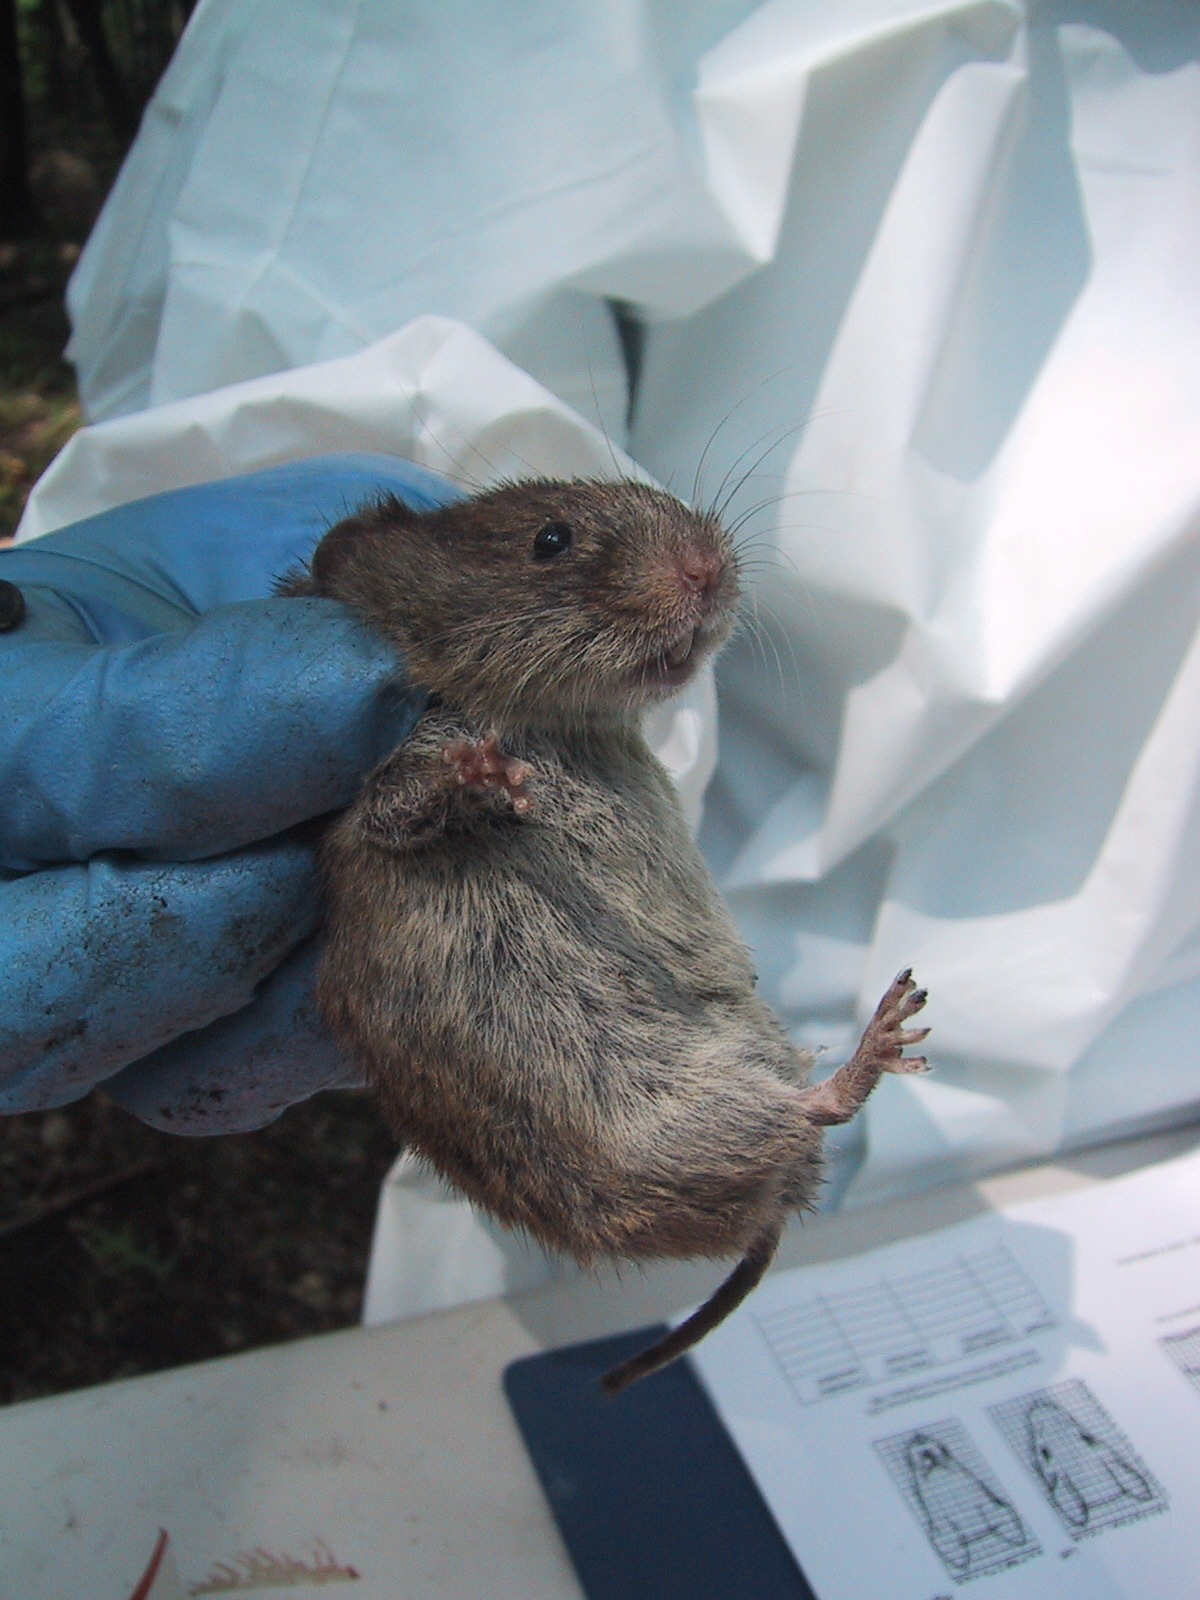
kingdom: Animalia
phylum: Chordata
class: Mammalia
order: Rodentia
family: Cricetidae
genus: Microtus
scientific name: Microtus pennsylvanicus
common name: Meadow vole
